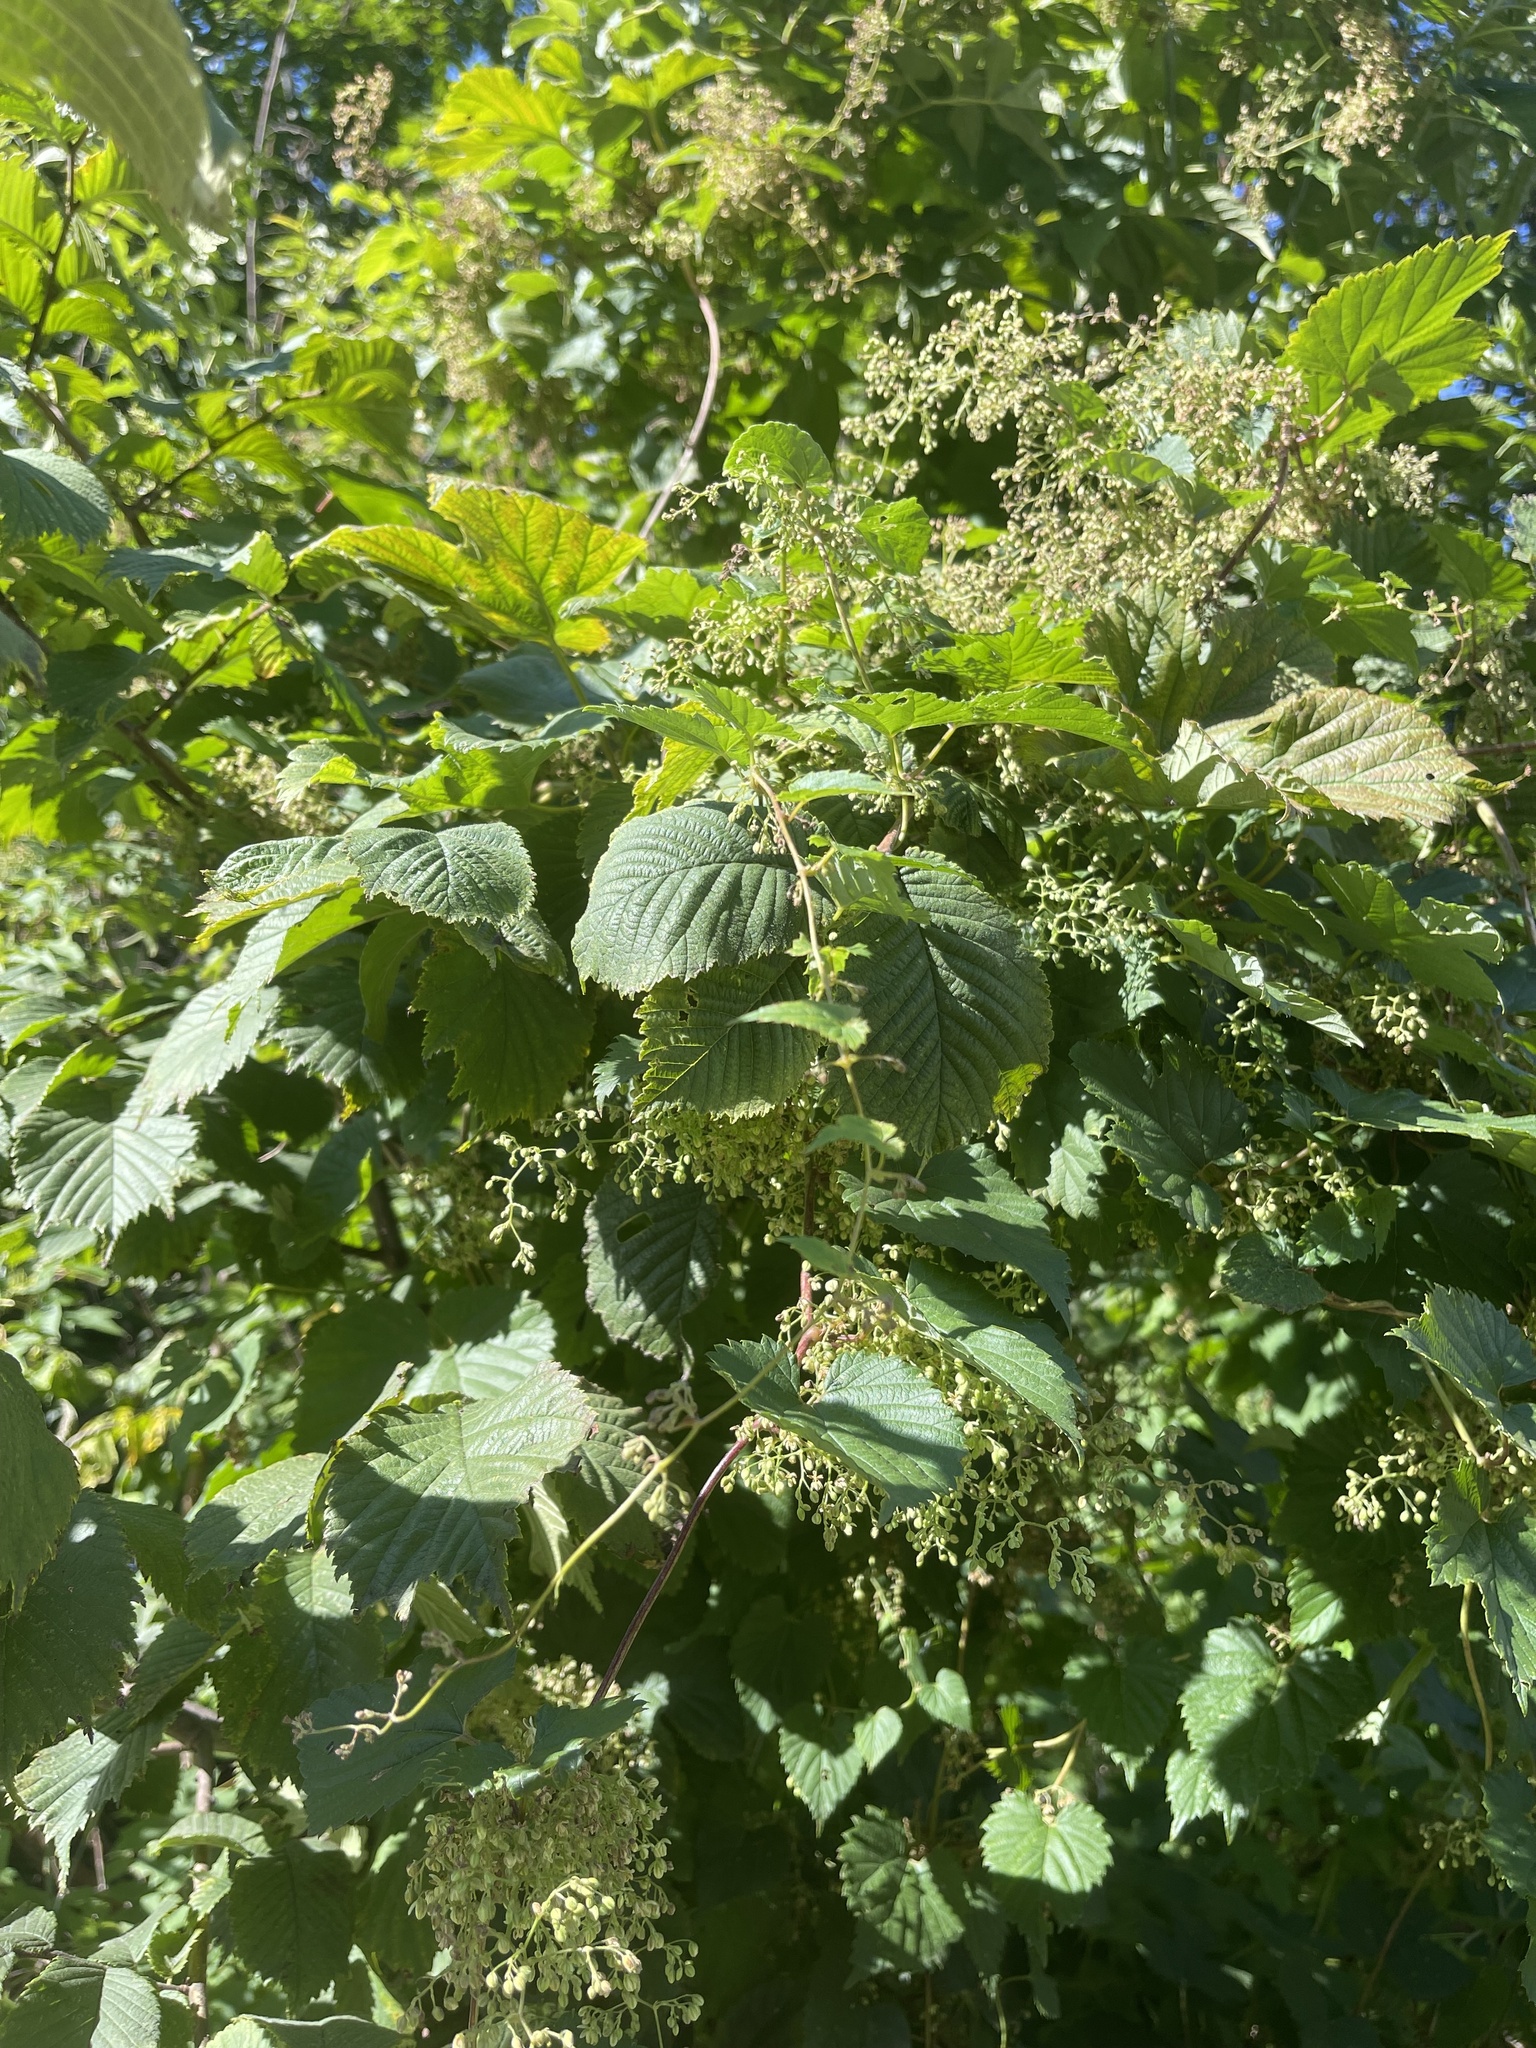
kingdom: Plantae
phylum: Tracheophyta
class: Magnoliopsida
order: Rosales
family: Cannabaceae
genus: Humulus
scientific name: Humulus lupulus
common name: Hop
